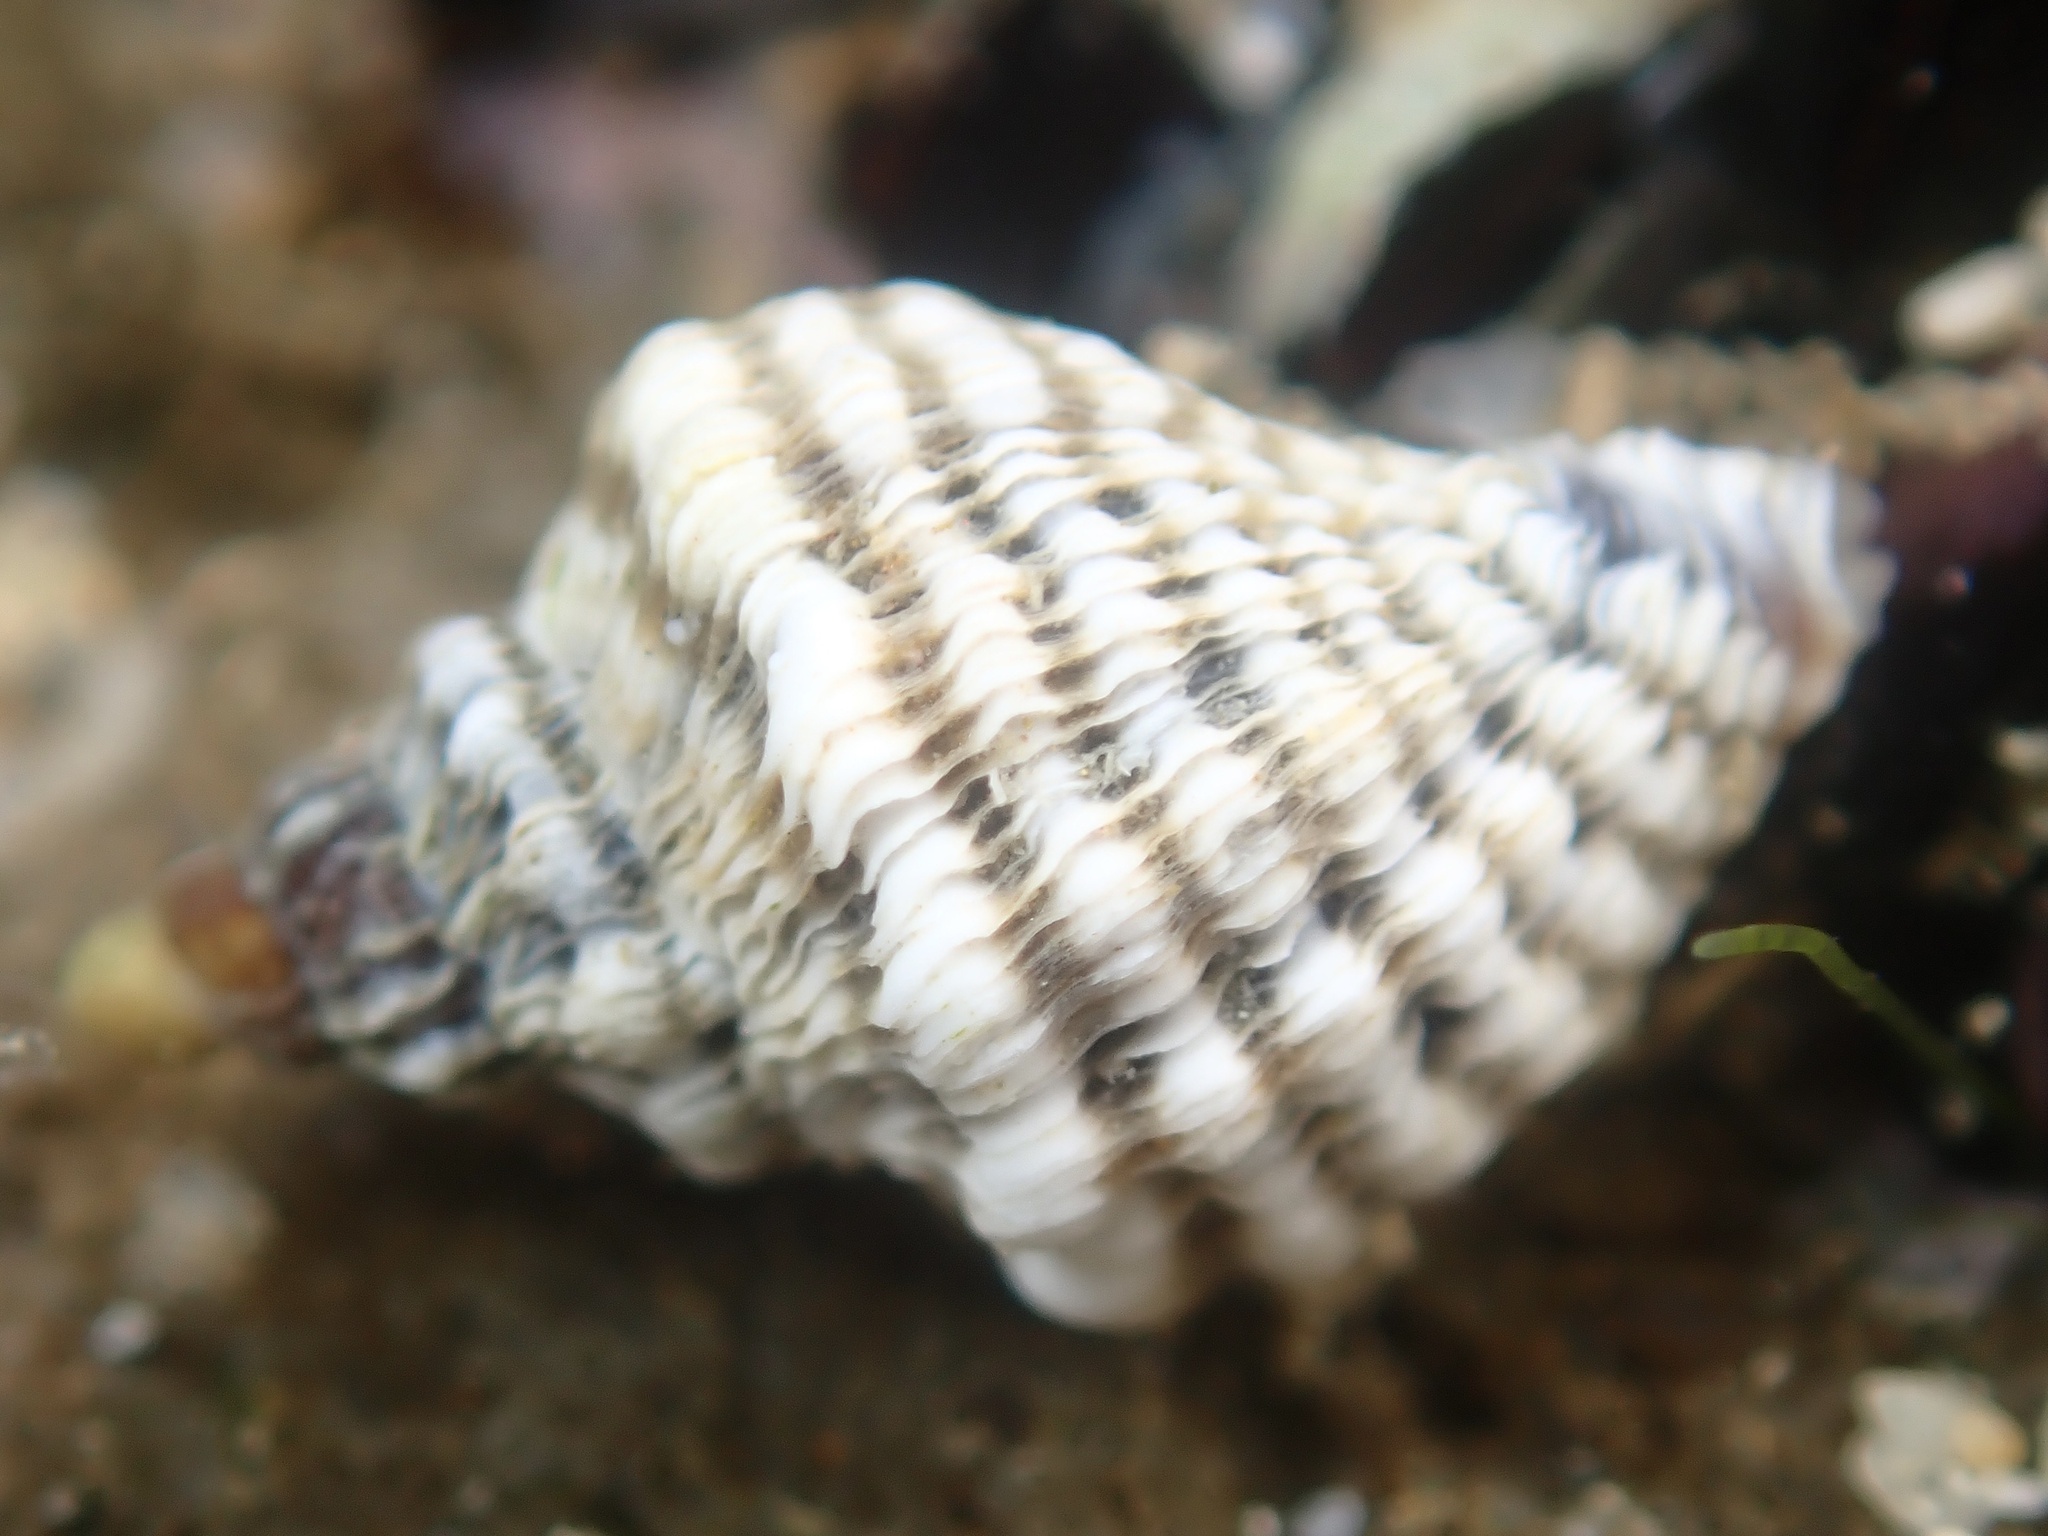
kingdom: Animalia
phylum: Mollusca
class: Gastropoda
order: Neogastropoda
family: Muricidae
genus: Bedeva
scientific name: Bedeva vinosa
